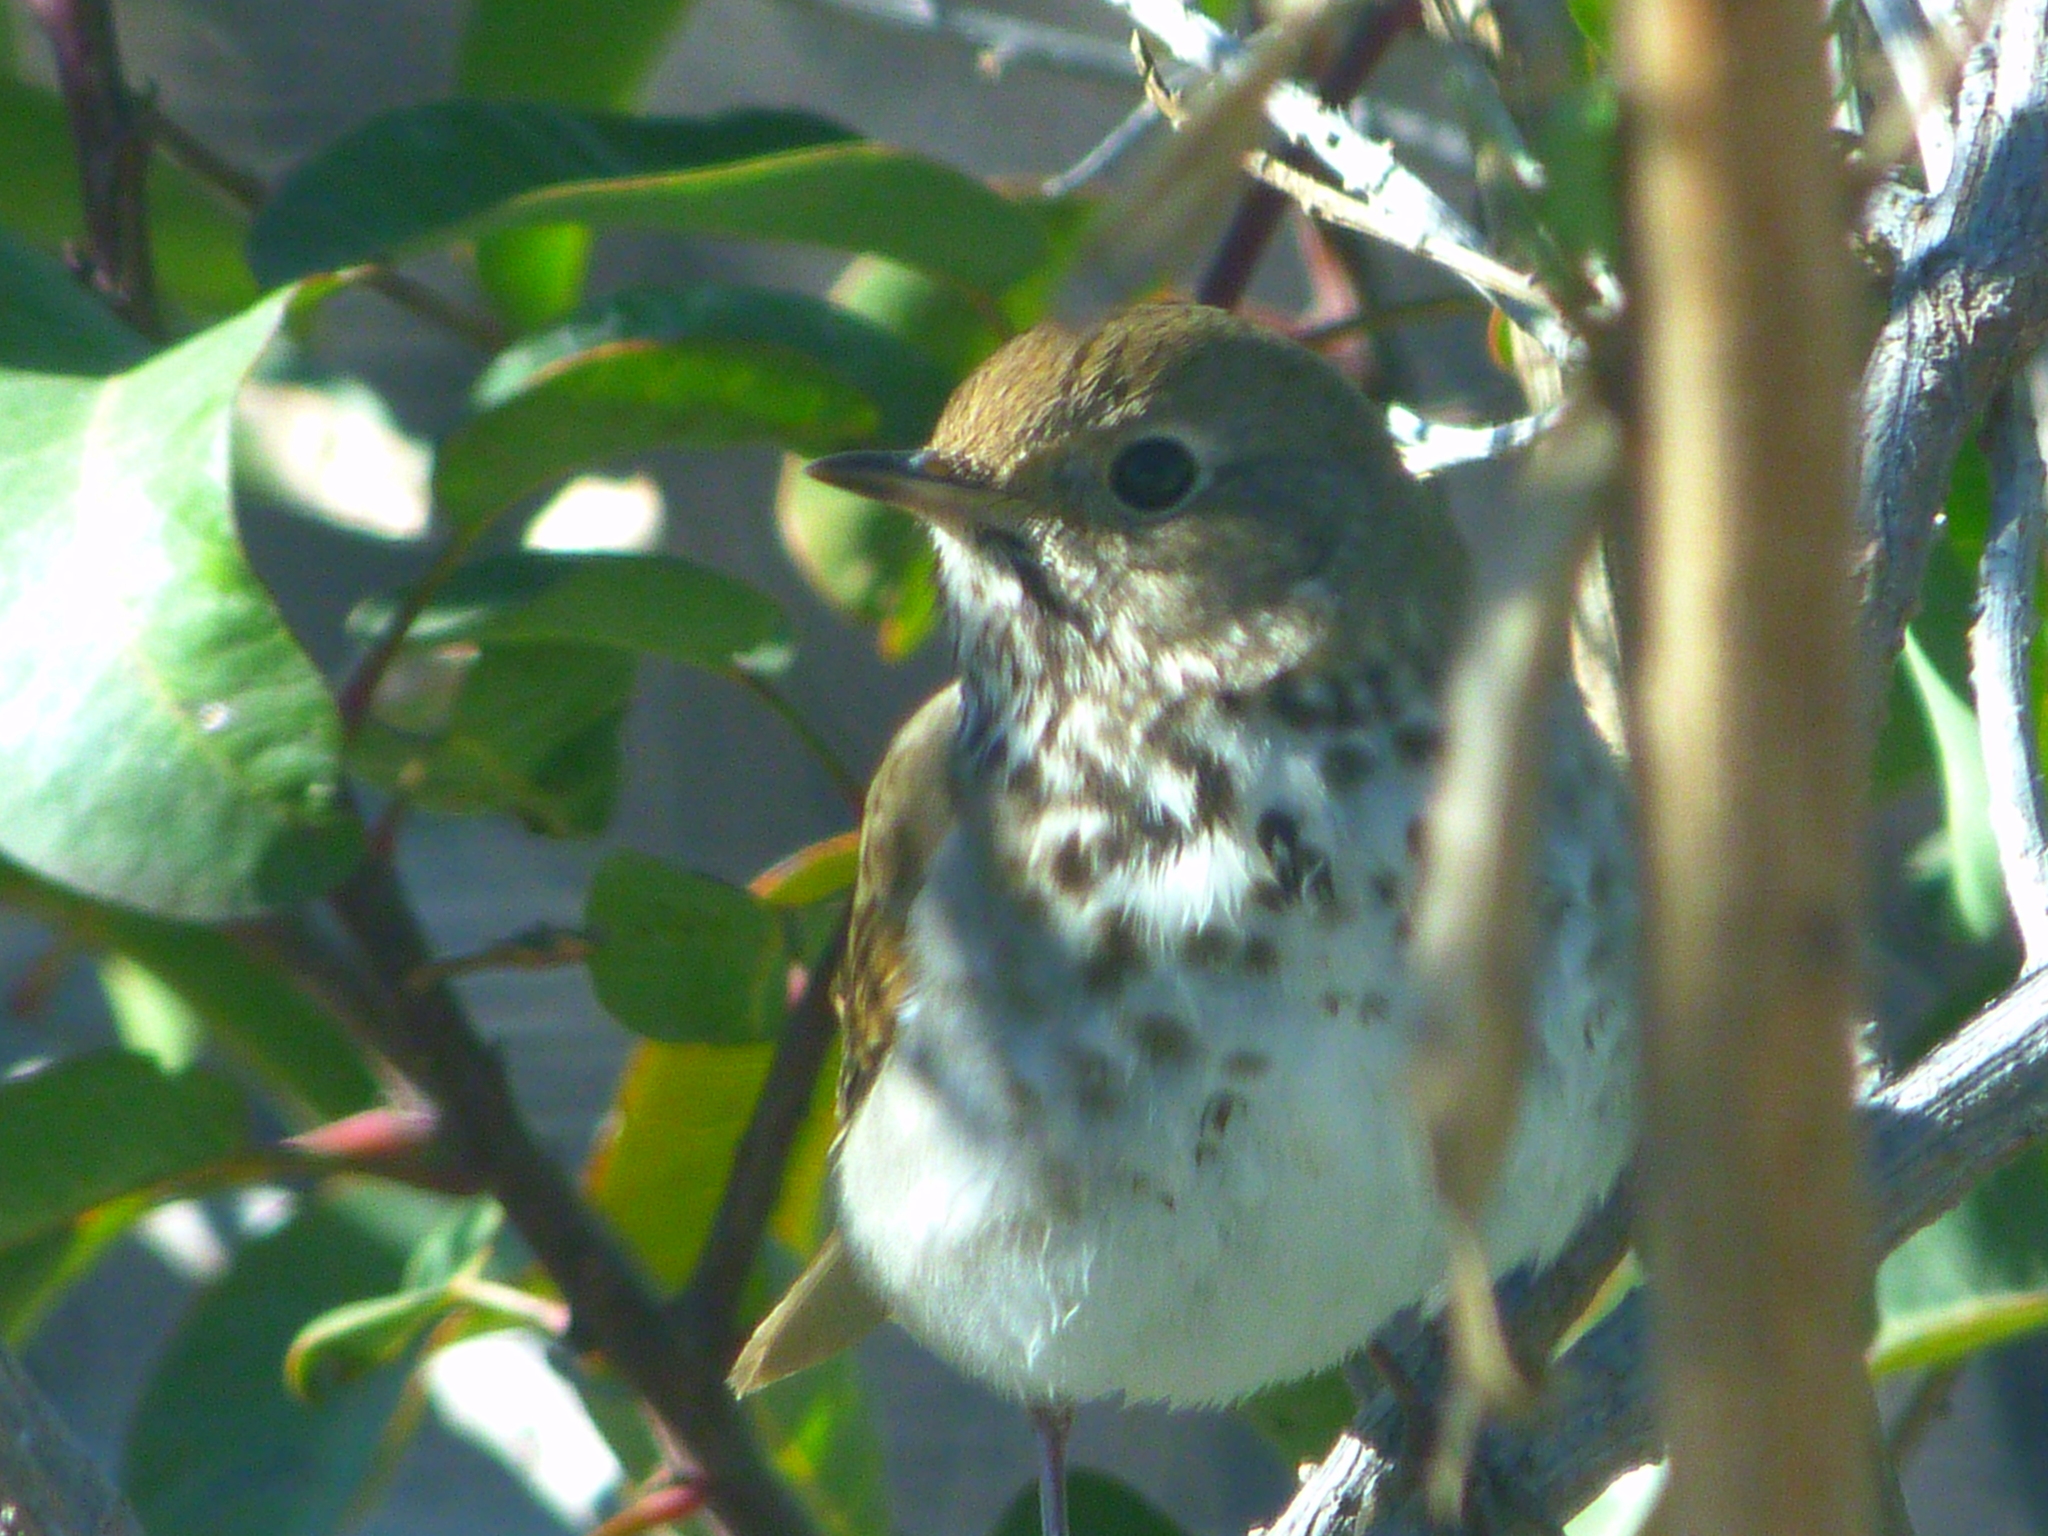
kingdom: Animalia
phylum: Chordata
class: Aves
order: Passeriformes
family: Turdidae
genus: Catharus
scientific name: Catharus guttatus
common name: Hermit thrush
